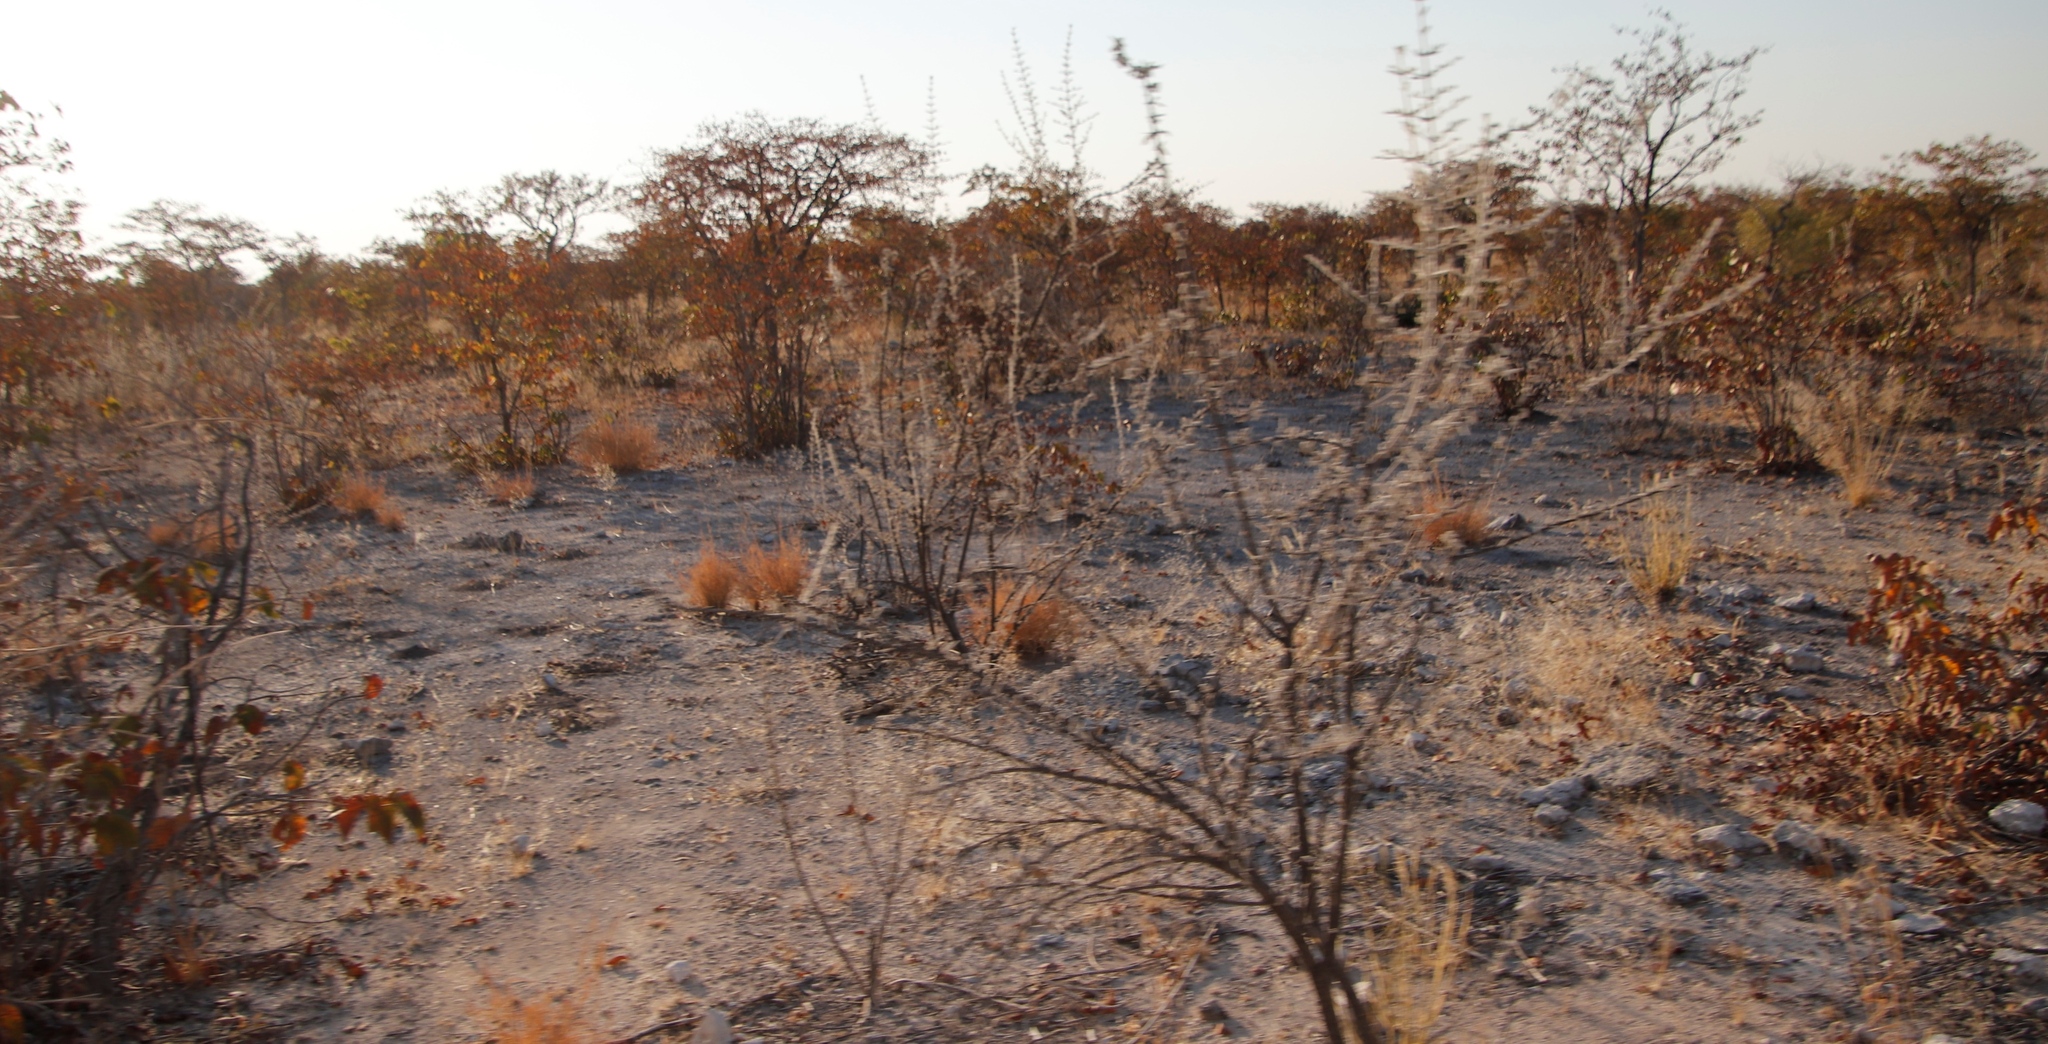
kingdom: Plantae
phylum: Tracheophyta
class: Magnoliopsida
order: Lamiales
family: Bignoniaceae
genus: Catophractes
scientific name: Catophractes alexandri
